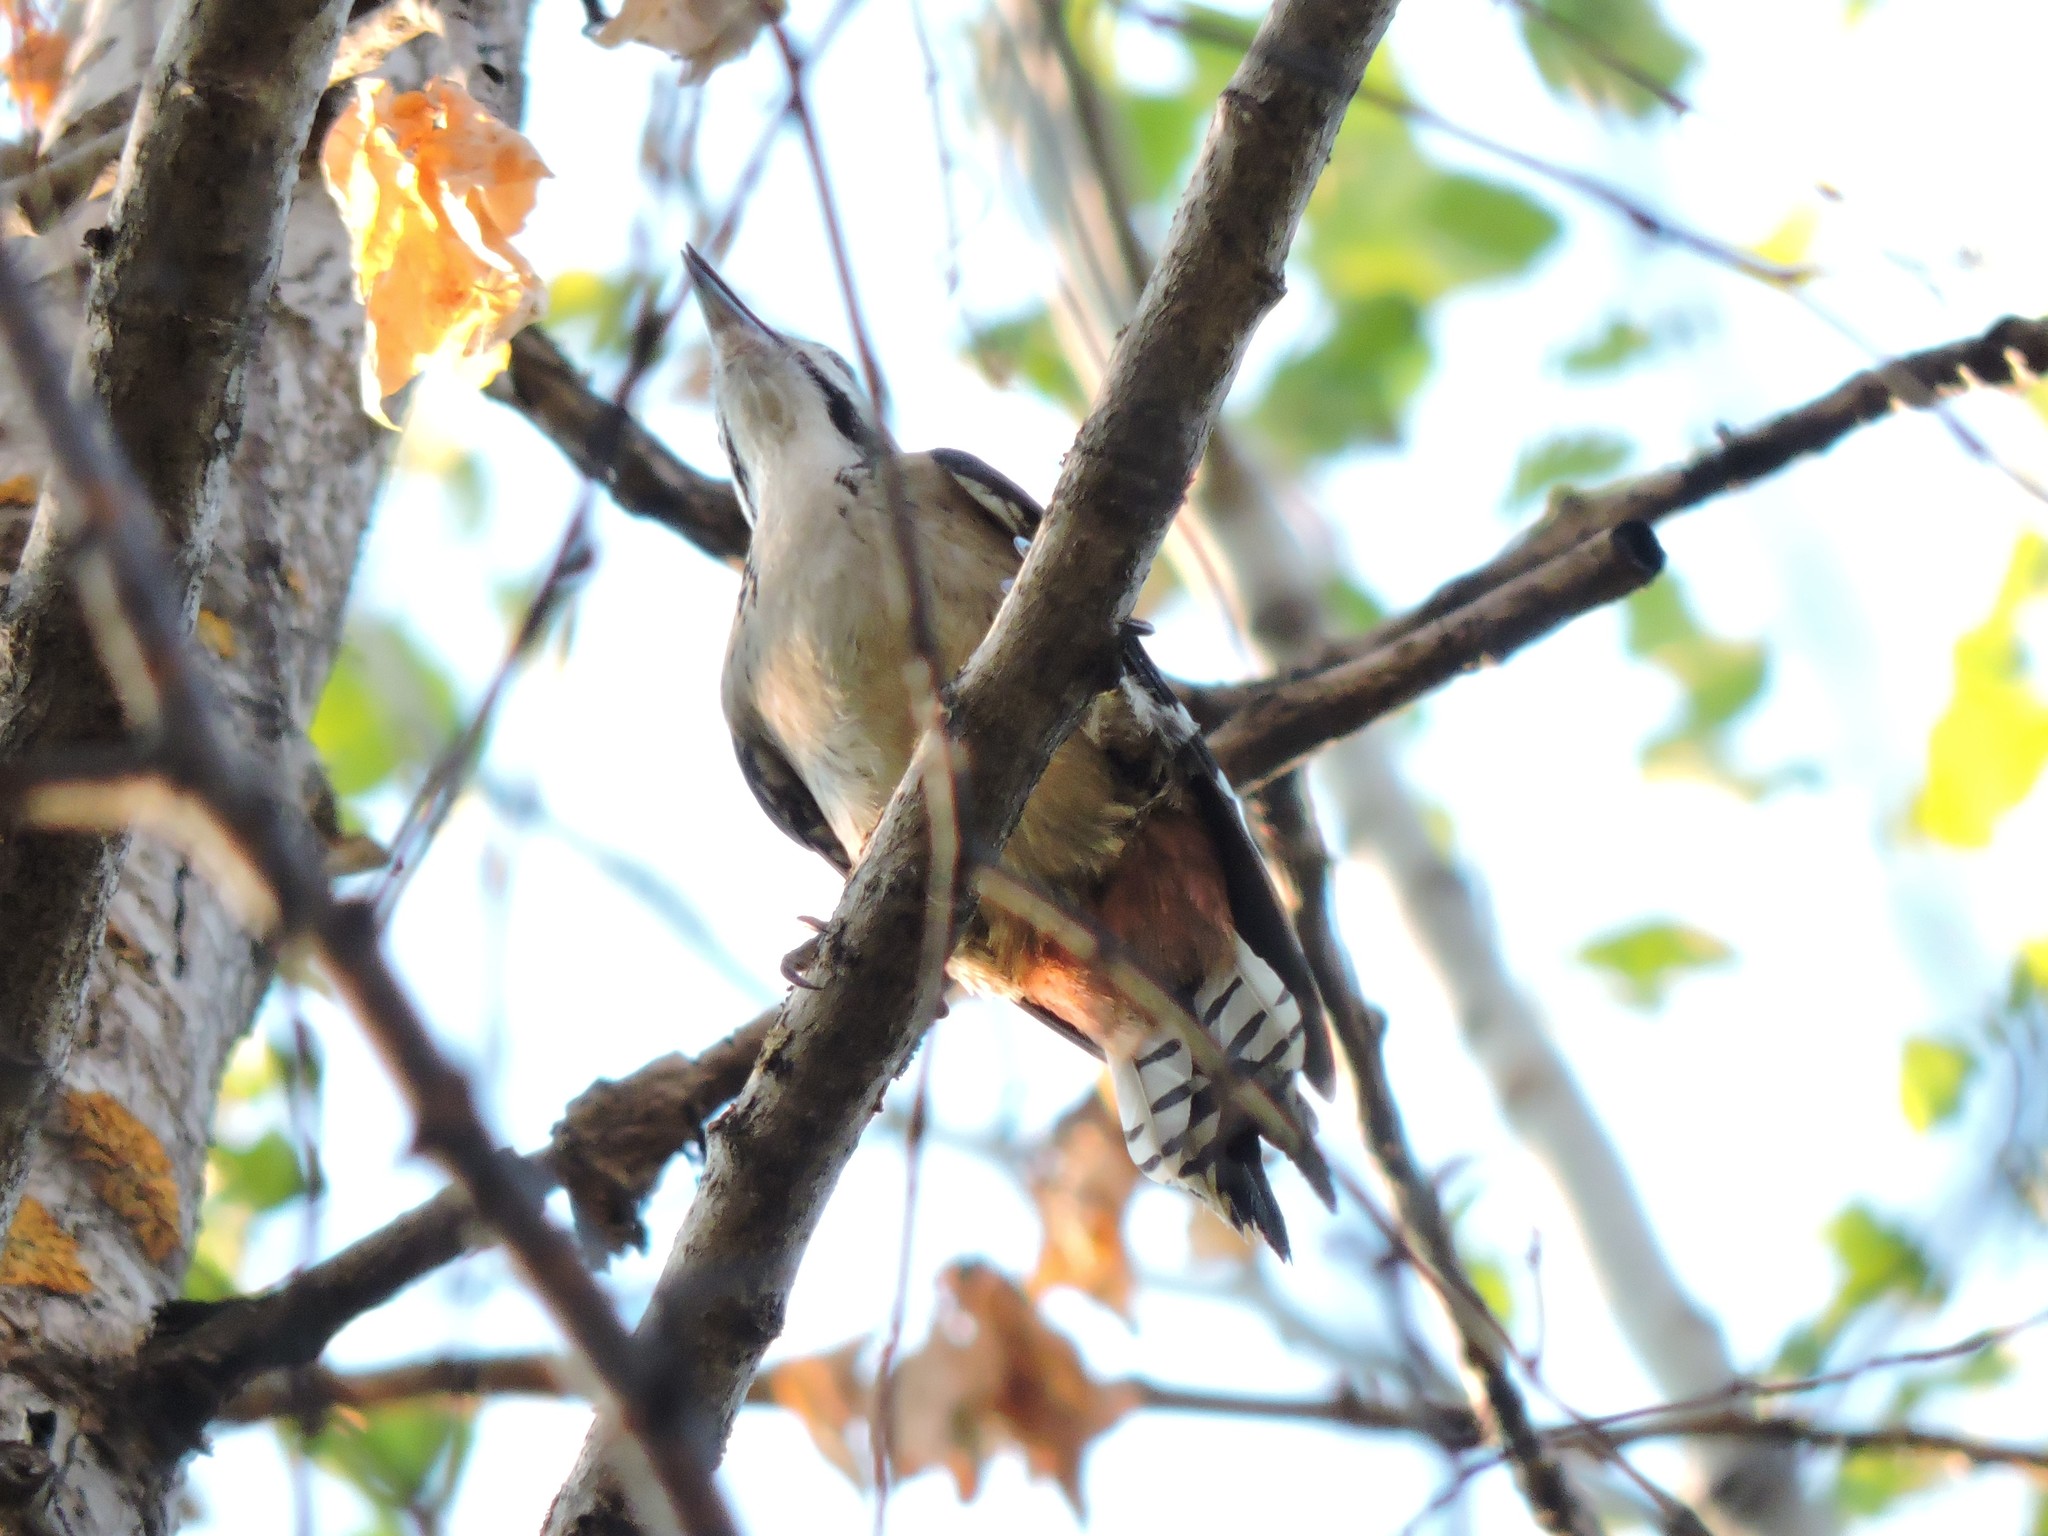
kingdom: Animalia
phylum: Chordata
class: Aves
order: Piciformes
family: Picidae
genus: Dendrocopos
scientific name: Dendrocopos major
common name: Great spotted woodpecker
